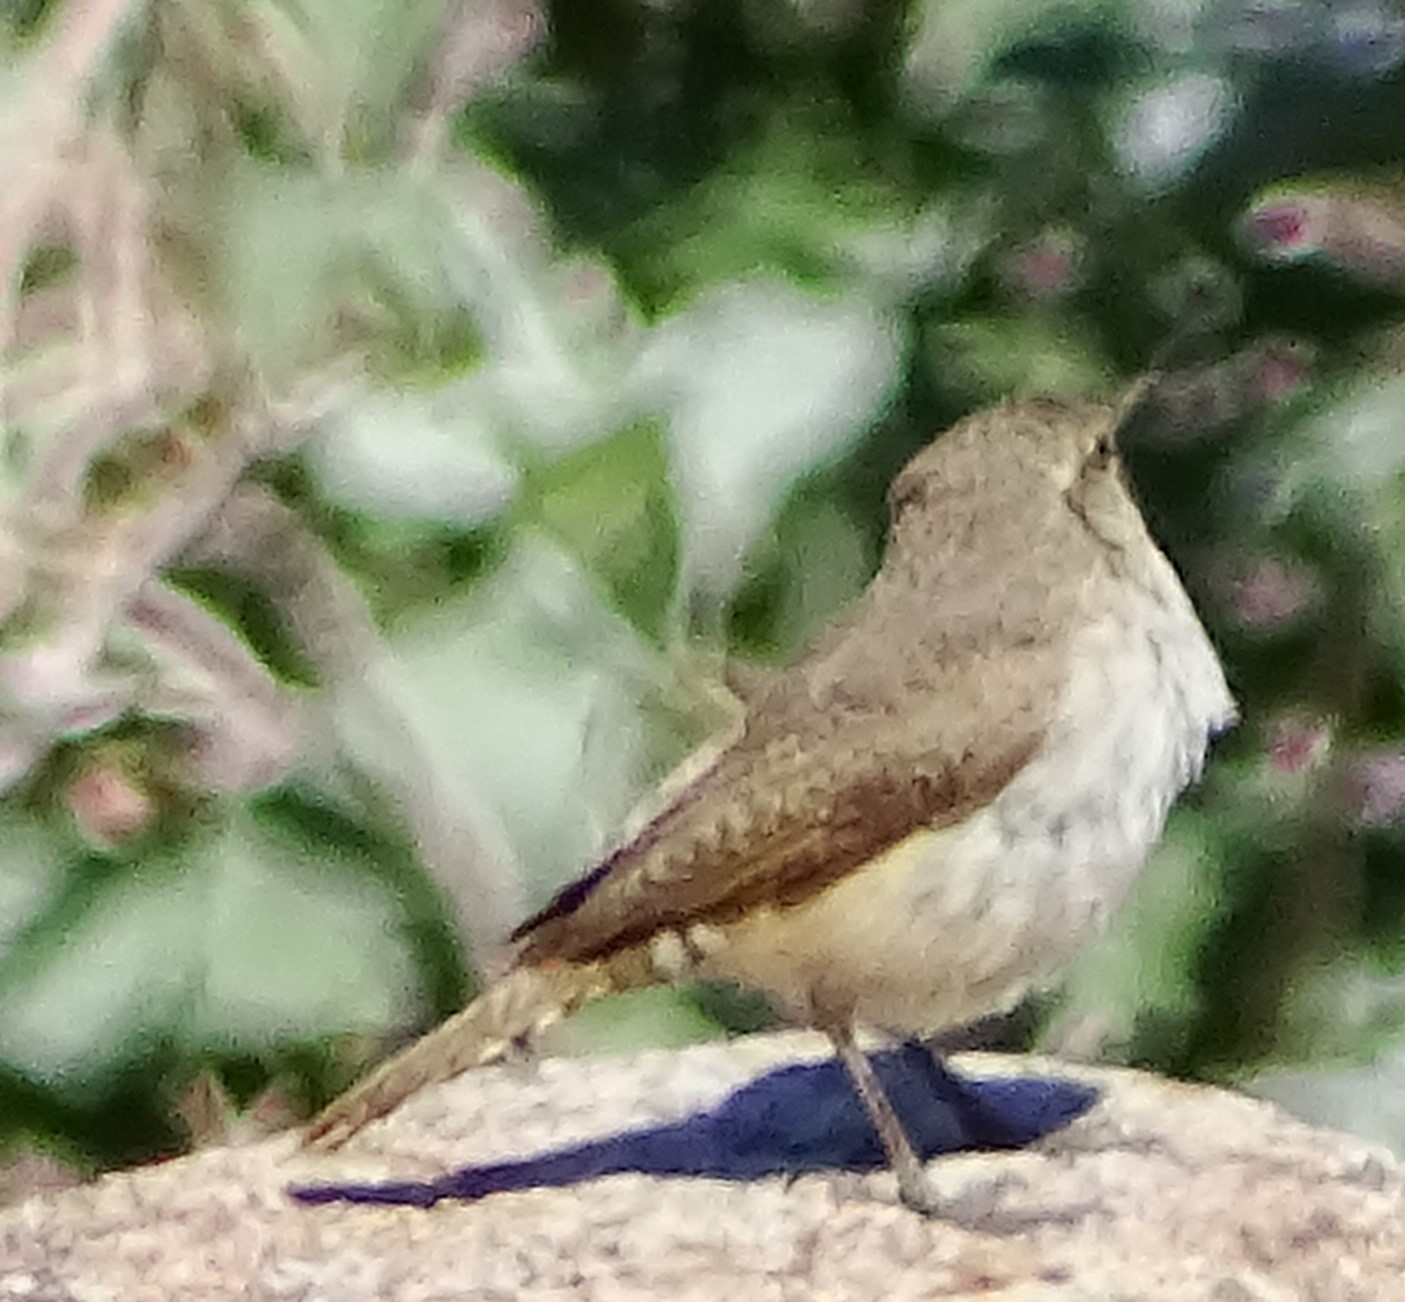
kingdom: Animalia
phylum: Chordata
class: Aves
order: Passeriformes
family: Troglodytidae
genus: Salpinctes
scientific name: Salpinctes obsoletus
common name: Rock wren
